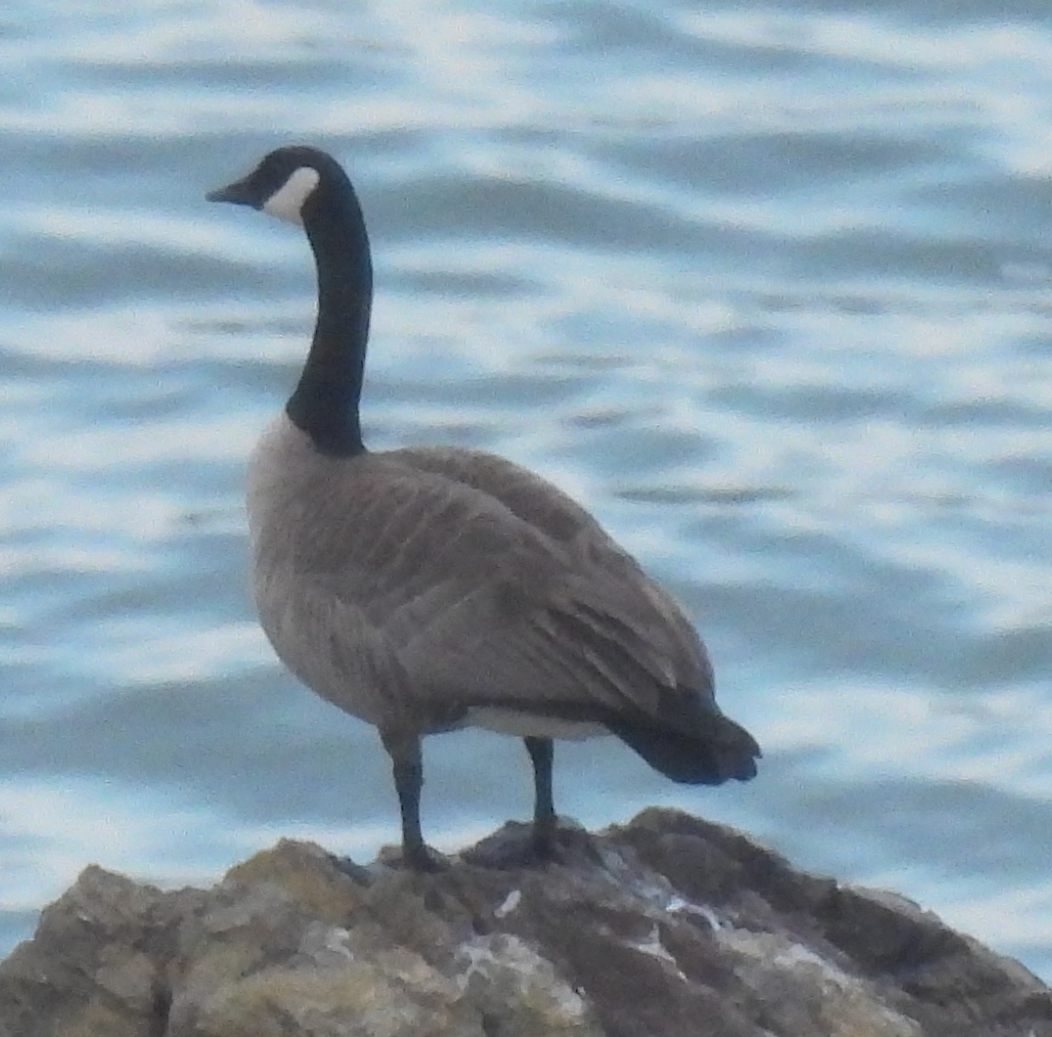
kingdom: Animalia
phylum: Chordata
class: Aves
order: Anseriformes
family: Anatidae
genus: Branta
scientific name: Branta canadensis
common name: Canada goose
